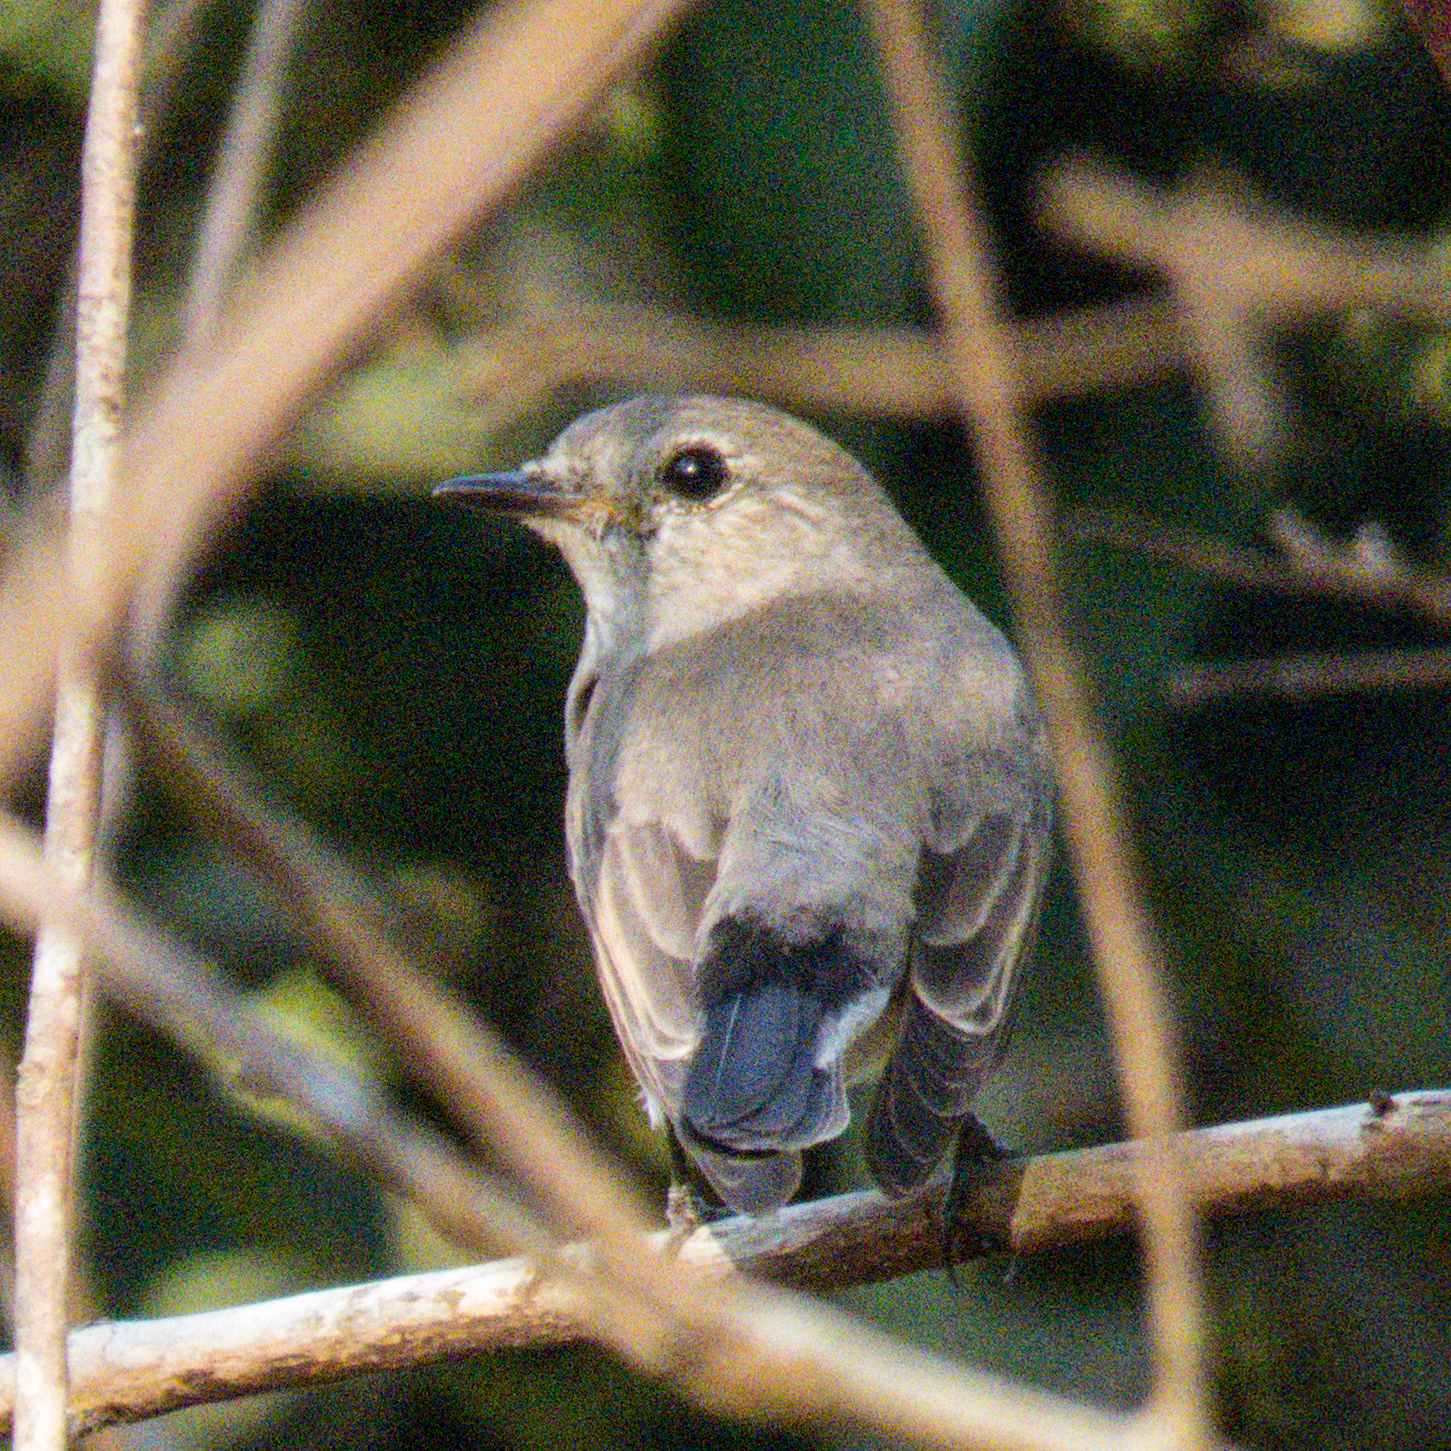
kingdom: Animalia
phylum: Chordata
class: Aves
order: Passeriformes
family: Muscicapidae
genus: Ficedula
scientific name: Ficedula albicilla
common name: Taiga flycatcher
